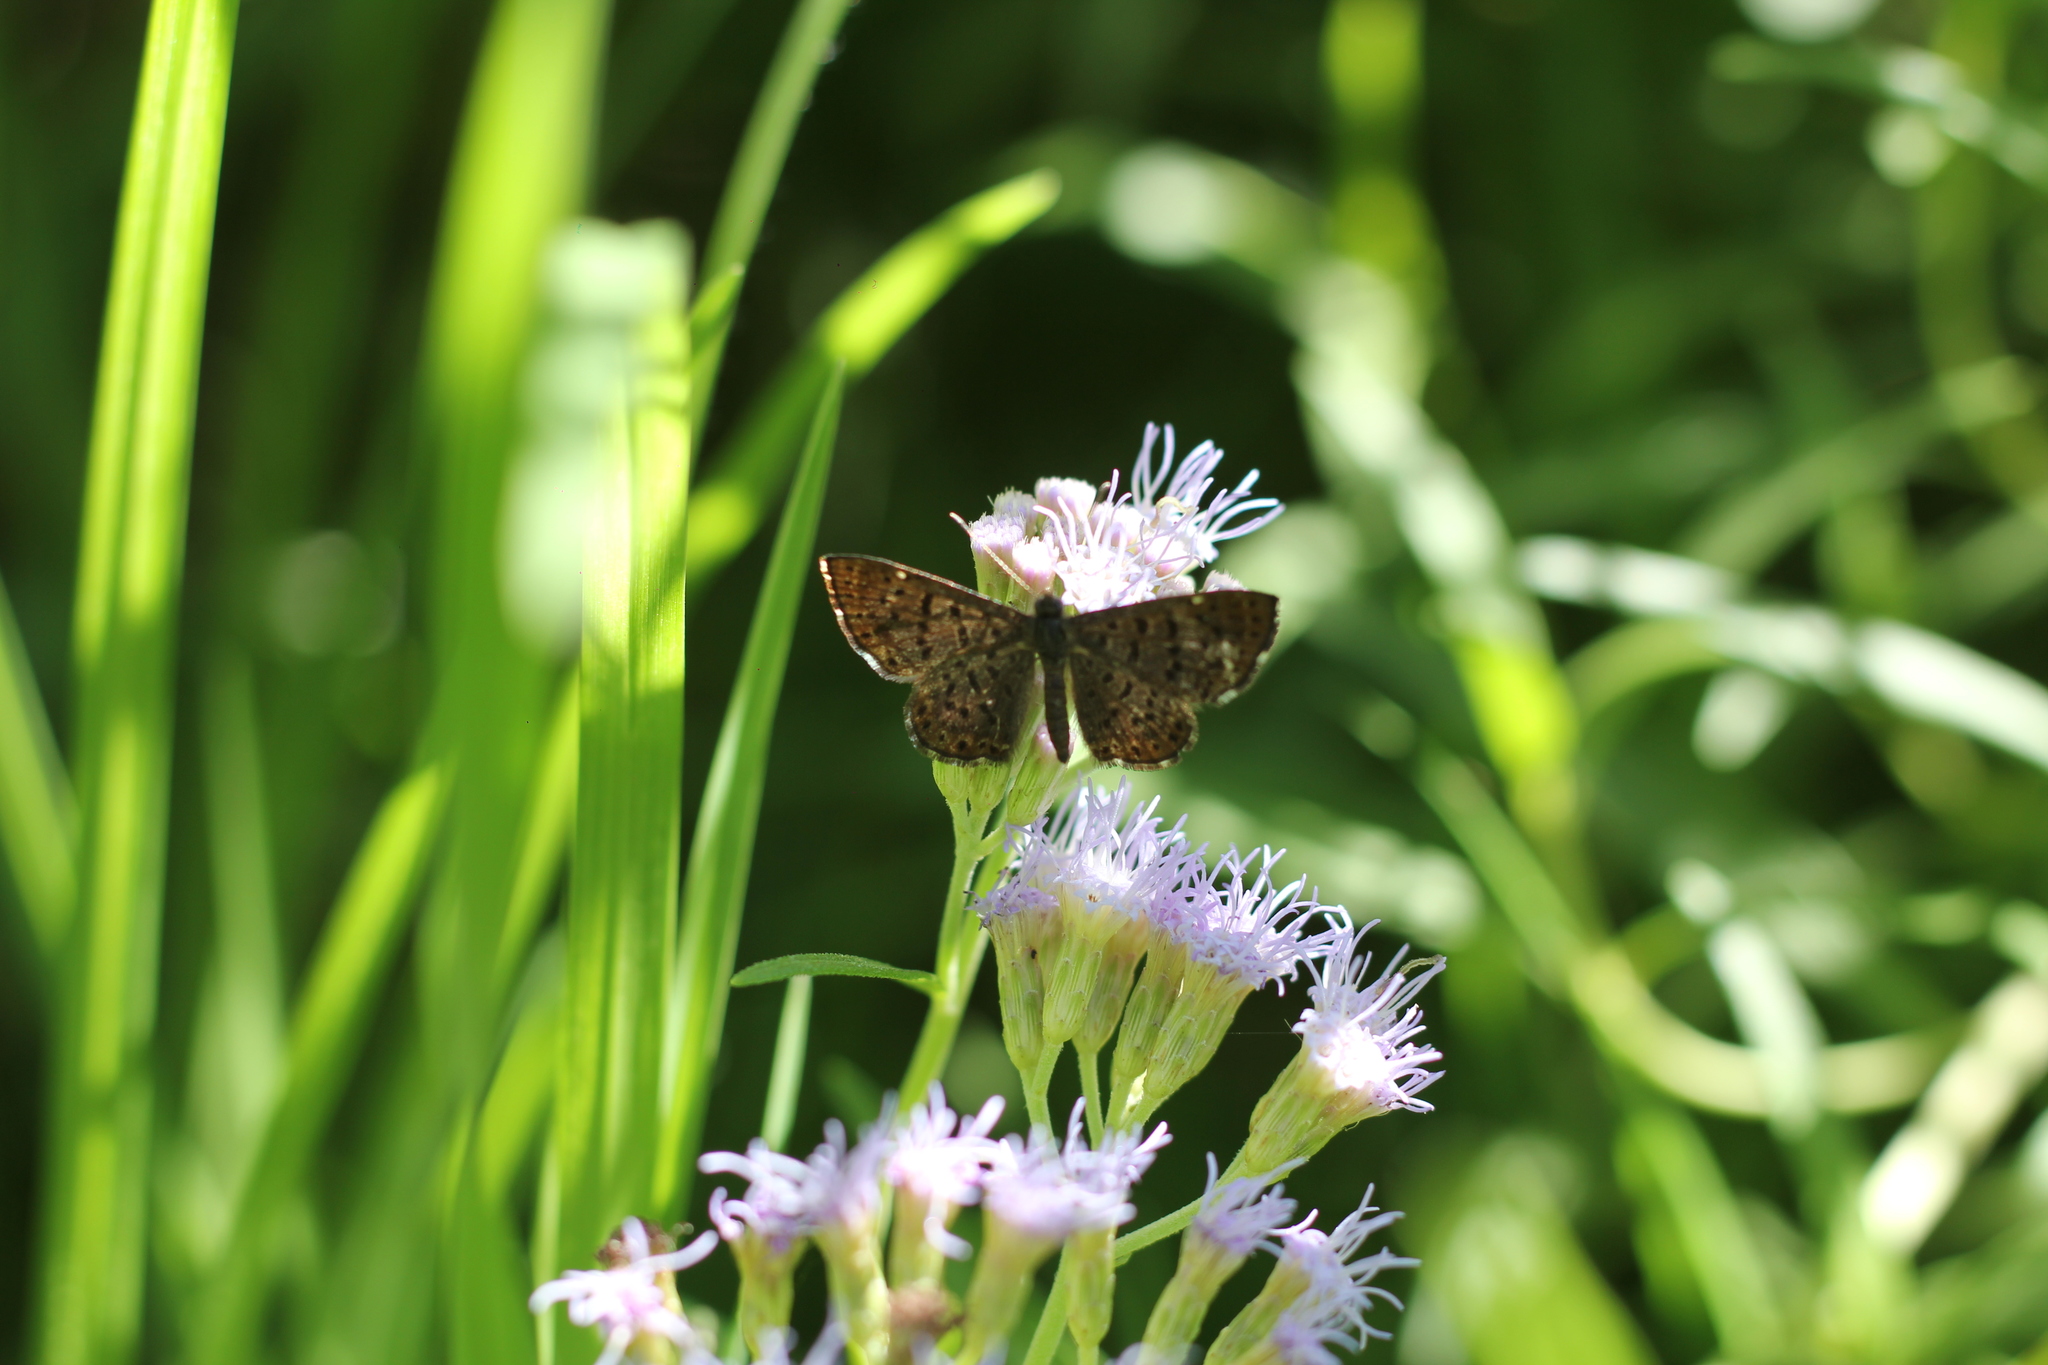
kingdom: Animalia
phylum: Arthropoda
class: Insecta
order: Lepidoptera
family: Riodinidae
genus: Teenie
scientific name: Teenie tinea
